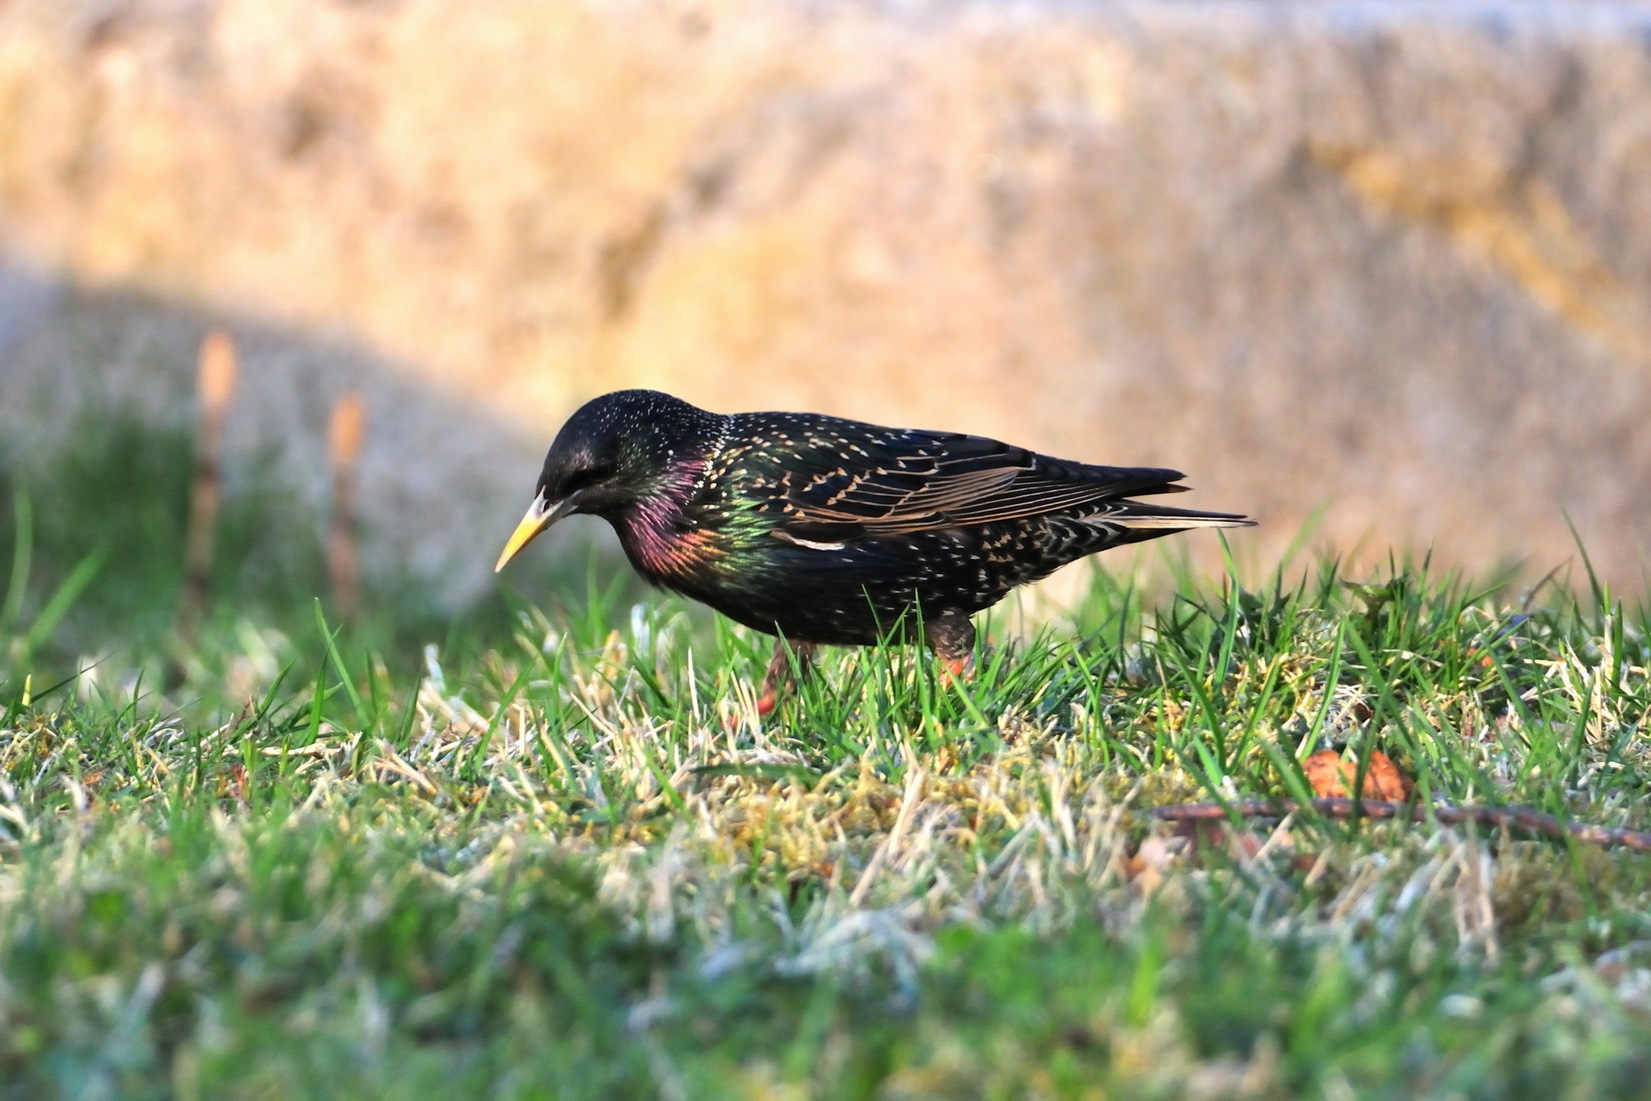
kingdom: Animalia
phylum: Chordata
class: Aves
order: Passeriformes
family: Sturnidae
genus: Sturnus
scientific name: Sturnus vulgaris
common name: Common starling
